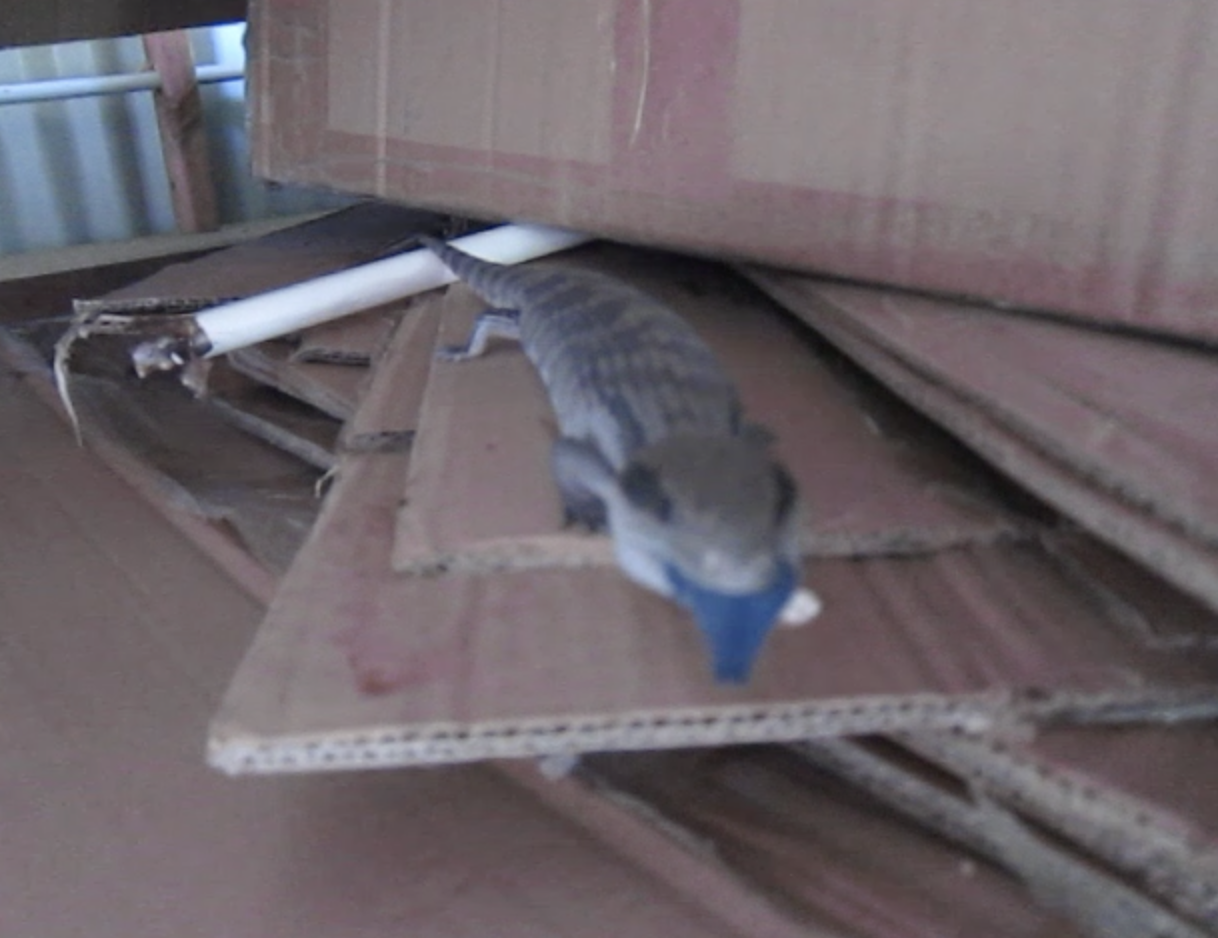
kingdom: Animalia
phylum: Chordata
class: Squamata
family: Scincidae
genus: Tiliqua
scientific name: Tiliqua scincoides
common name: Common bluetongue
